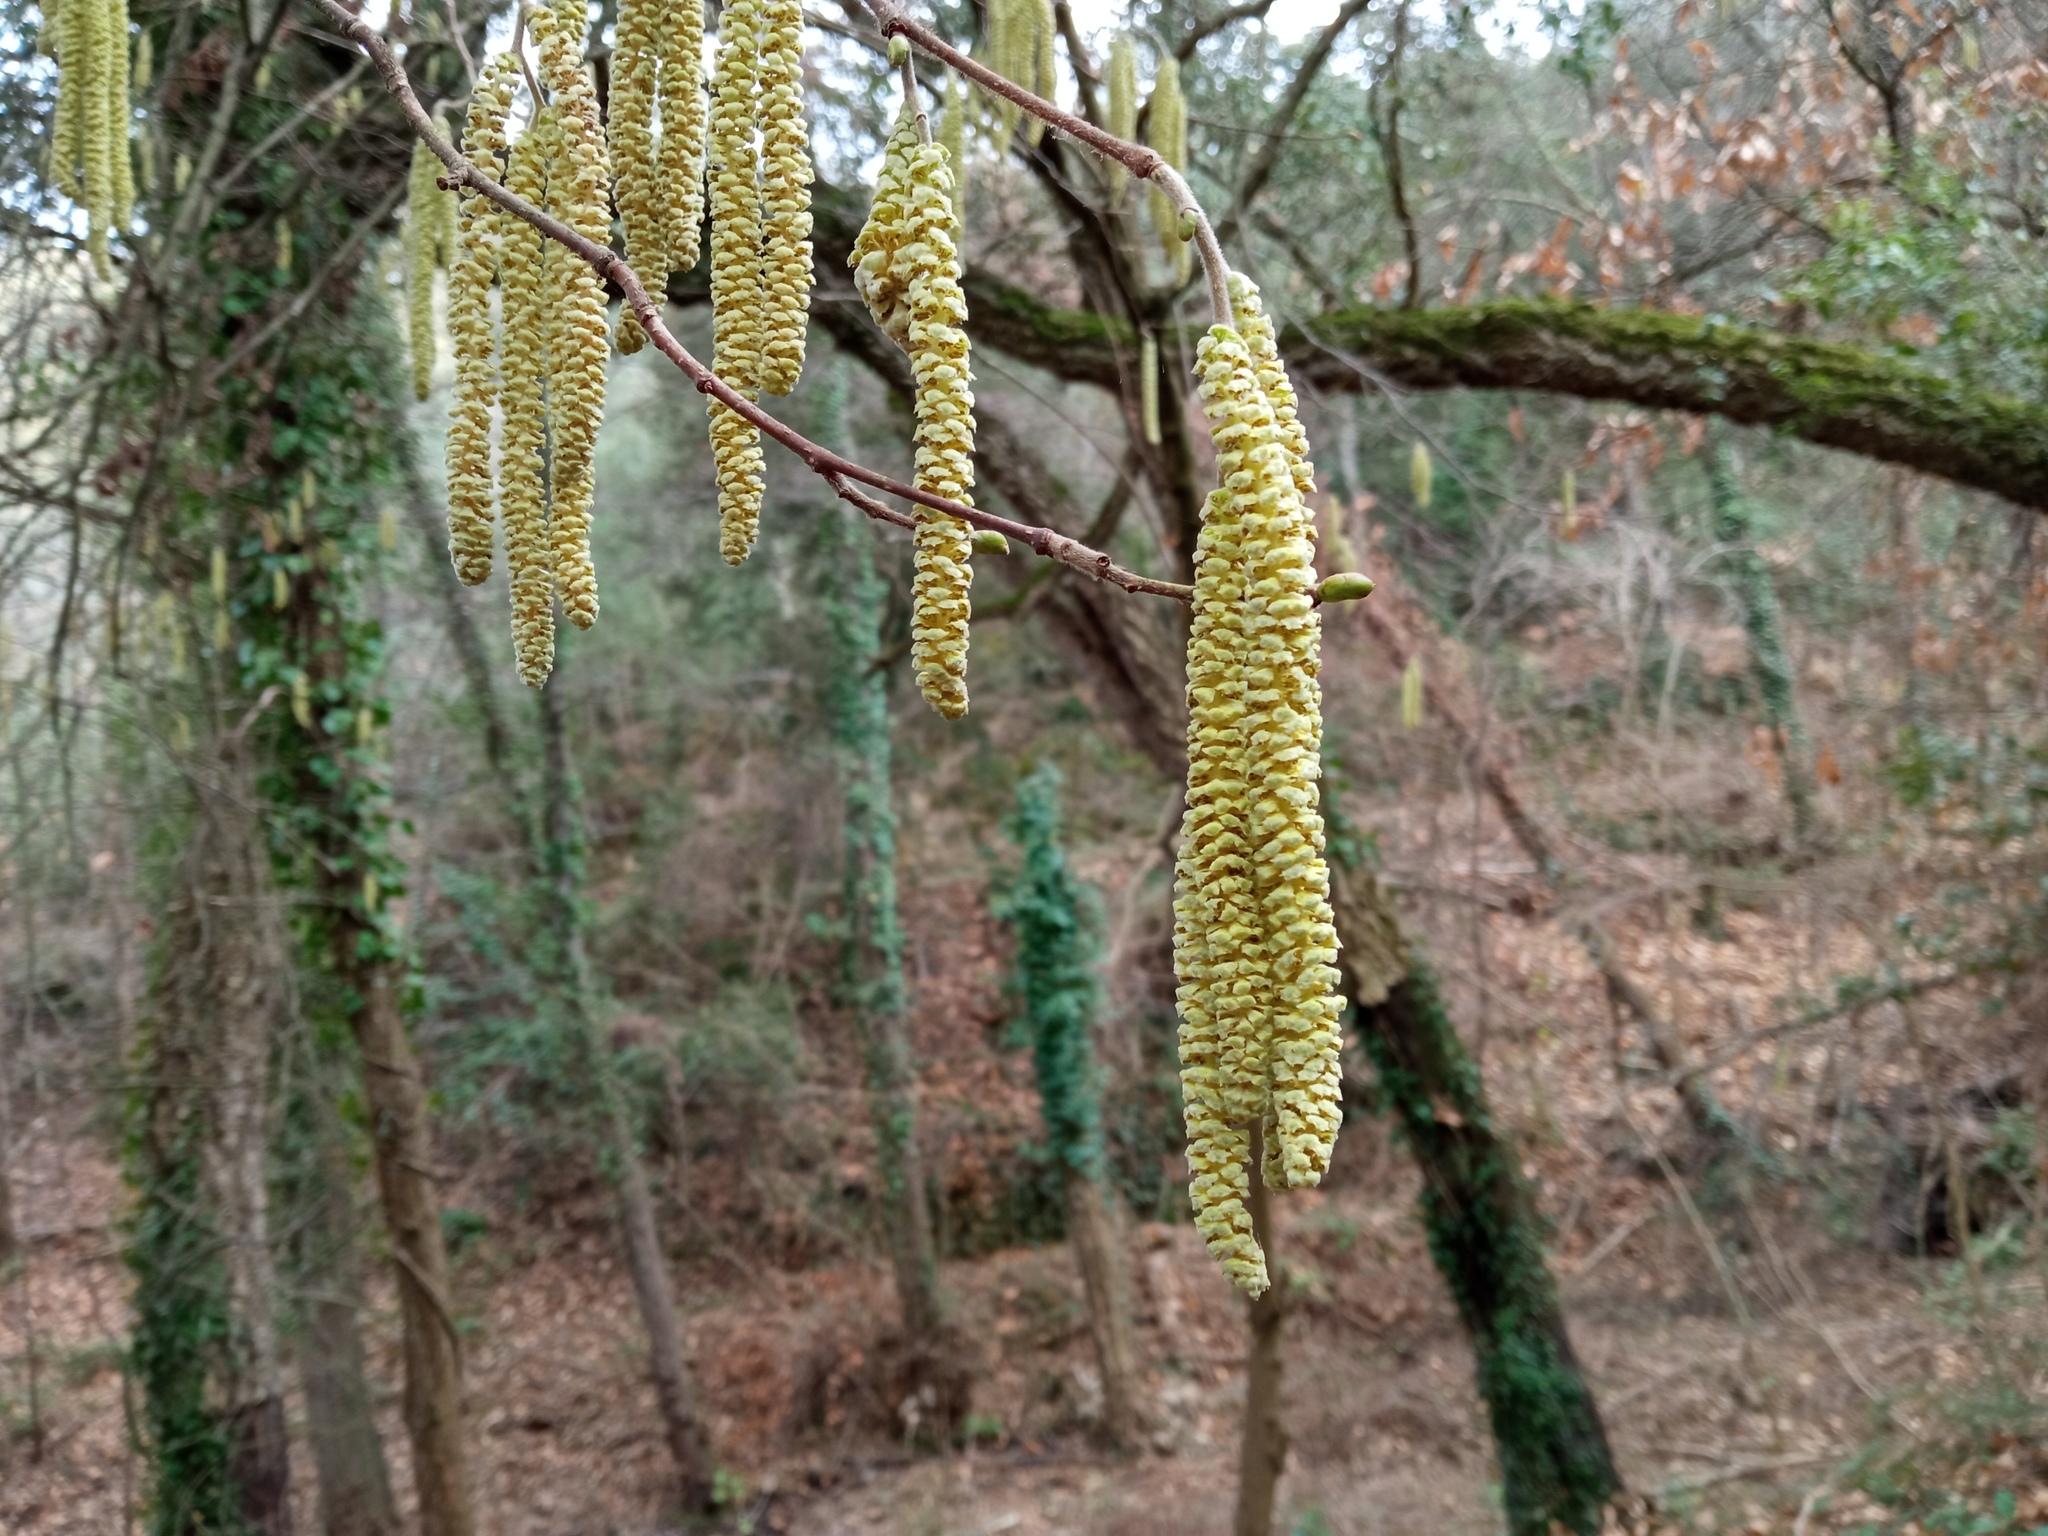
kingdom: Plantae
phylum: Tracheophyta
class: Magnoliopsida
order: Fagales
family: Betulaceae
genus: Corylus
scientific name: Corylus avellana
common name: European hazel
